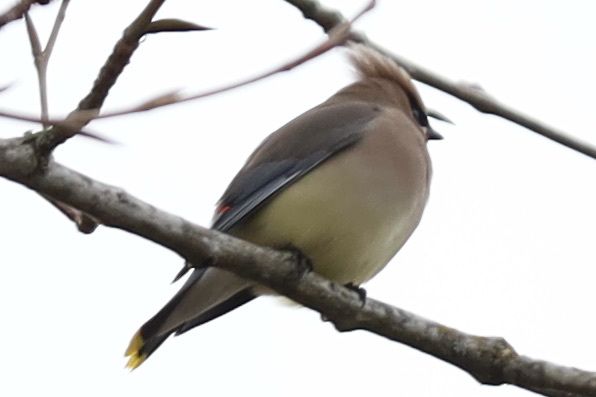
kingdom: Animalia
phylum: Chordata
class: Aves
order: Passeriformes
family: Bombycillidae
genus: Bombycilla
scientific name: Bombycilla cedrorum
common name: Cedar waxwing
